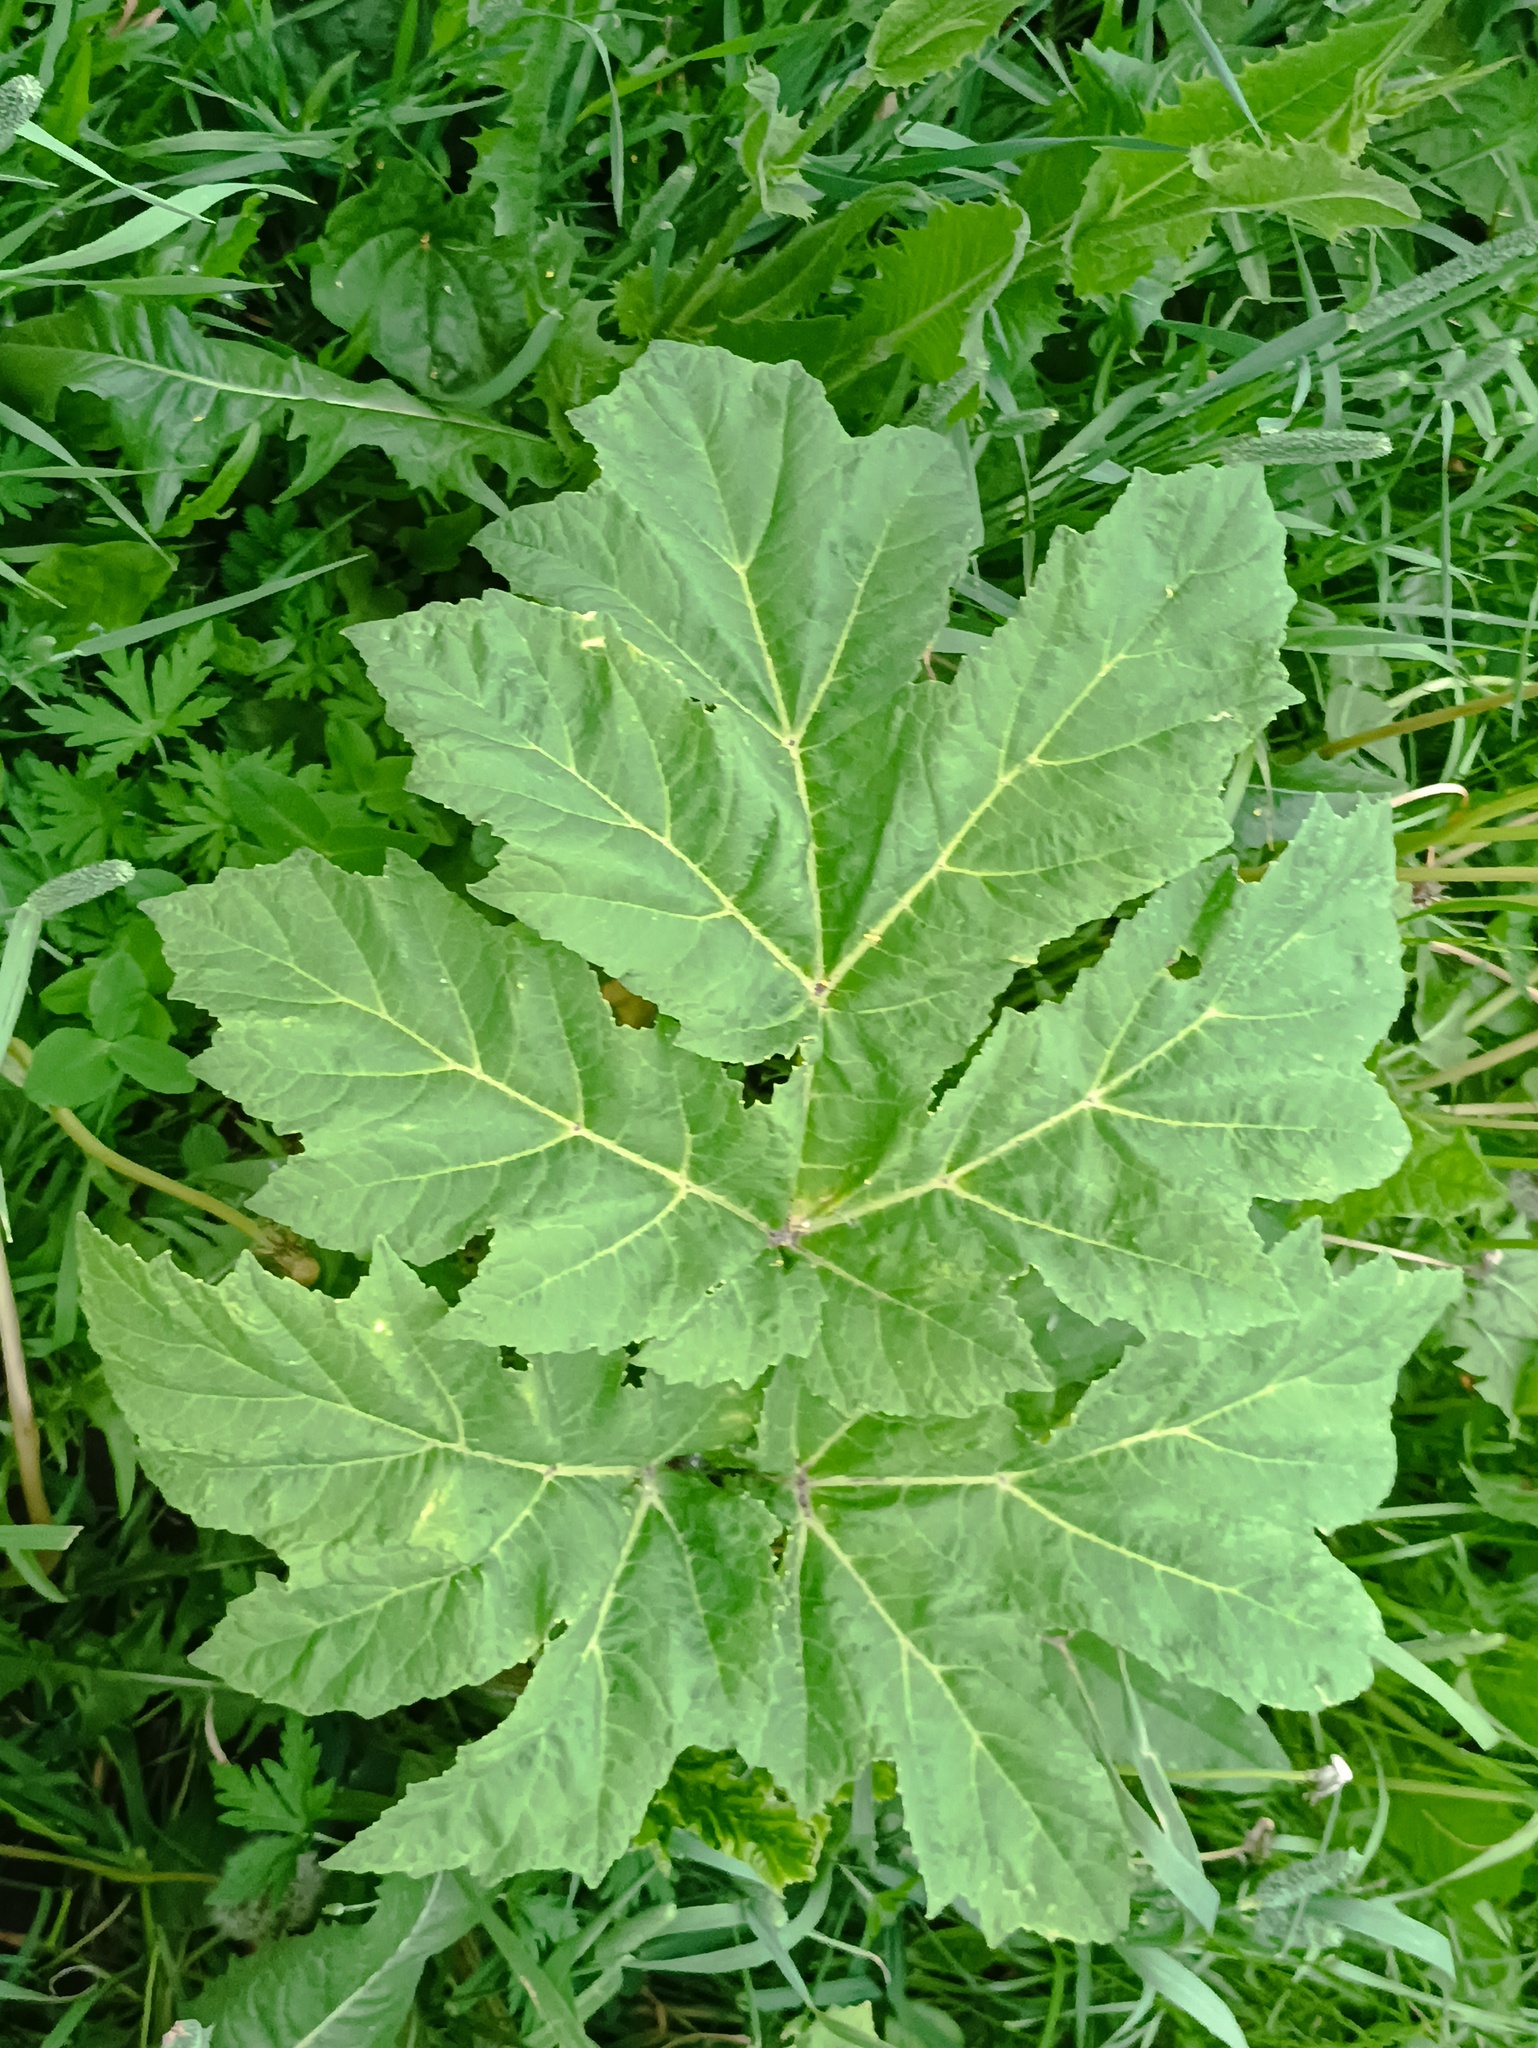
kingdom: Plantae
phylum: Tracheophyta
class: Magnoliopsida
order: Apiales
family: Apiaceae
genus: Heracleum
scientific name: Heracleum sosnowskyi
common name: Sosnowsky's hogweed
